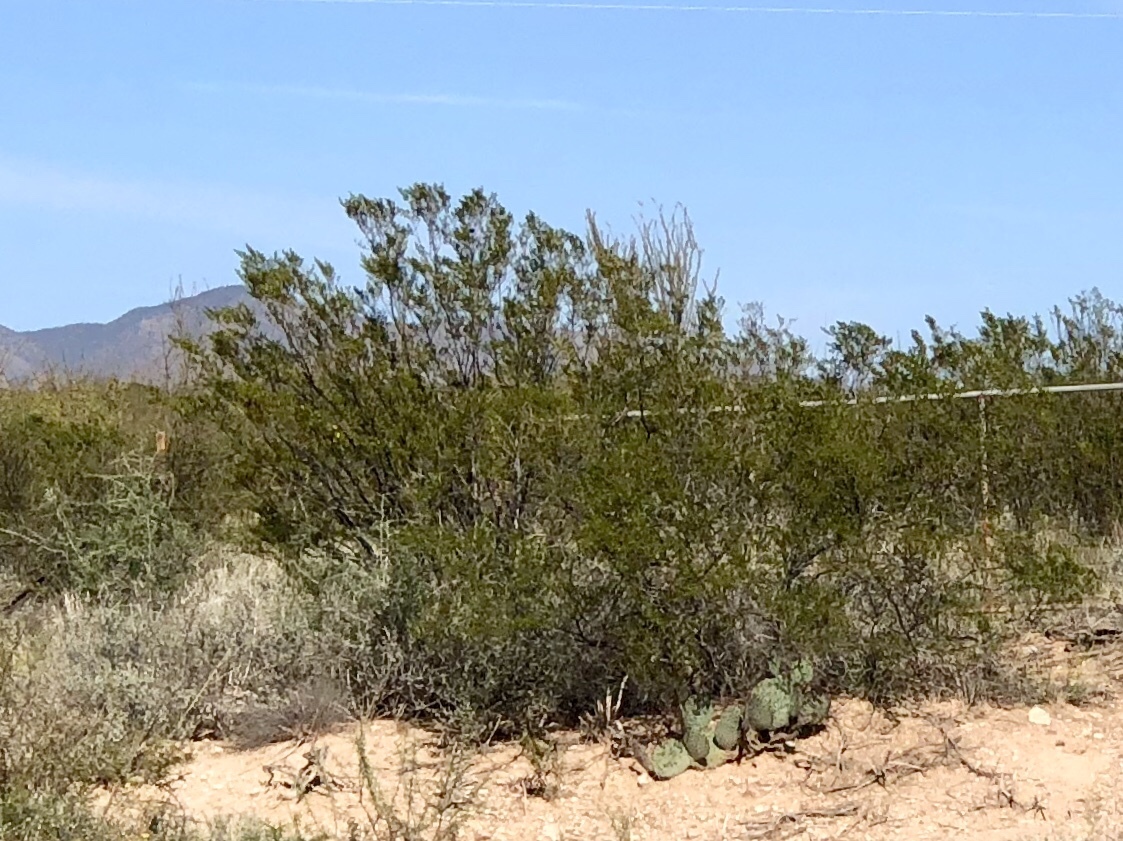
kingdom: Plantae
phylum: Tracheophyta
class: Magnoliopsida
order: Zygophyllales
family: Zygophyllaceae
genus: Larrea
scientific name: Larrea tridentata
